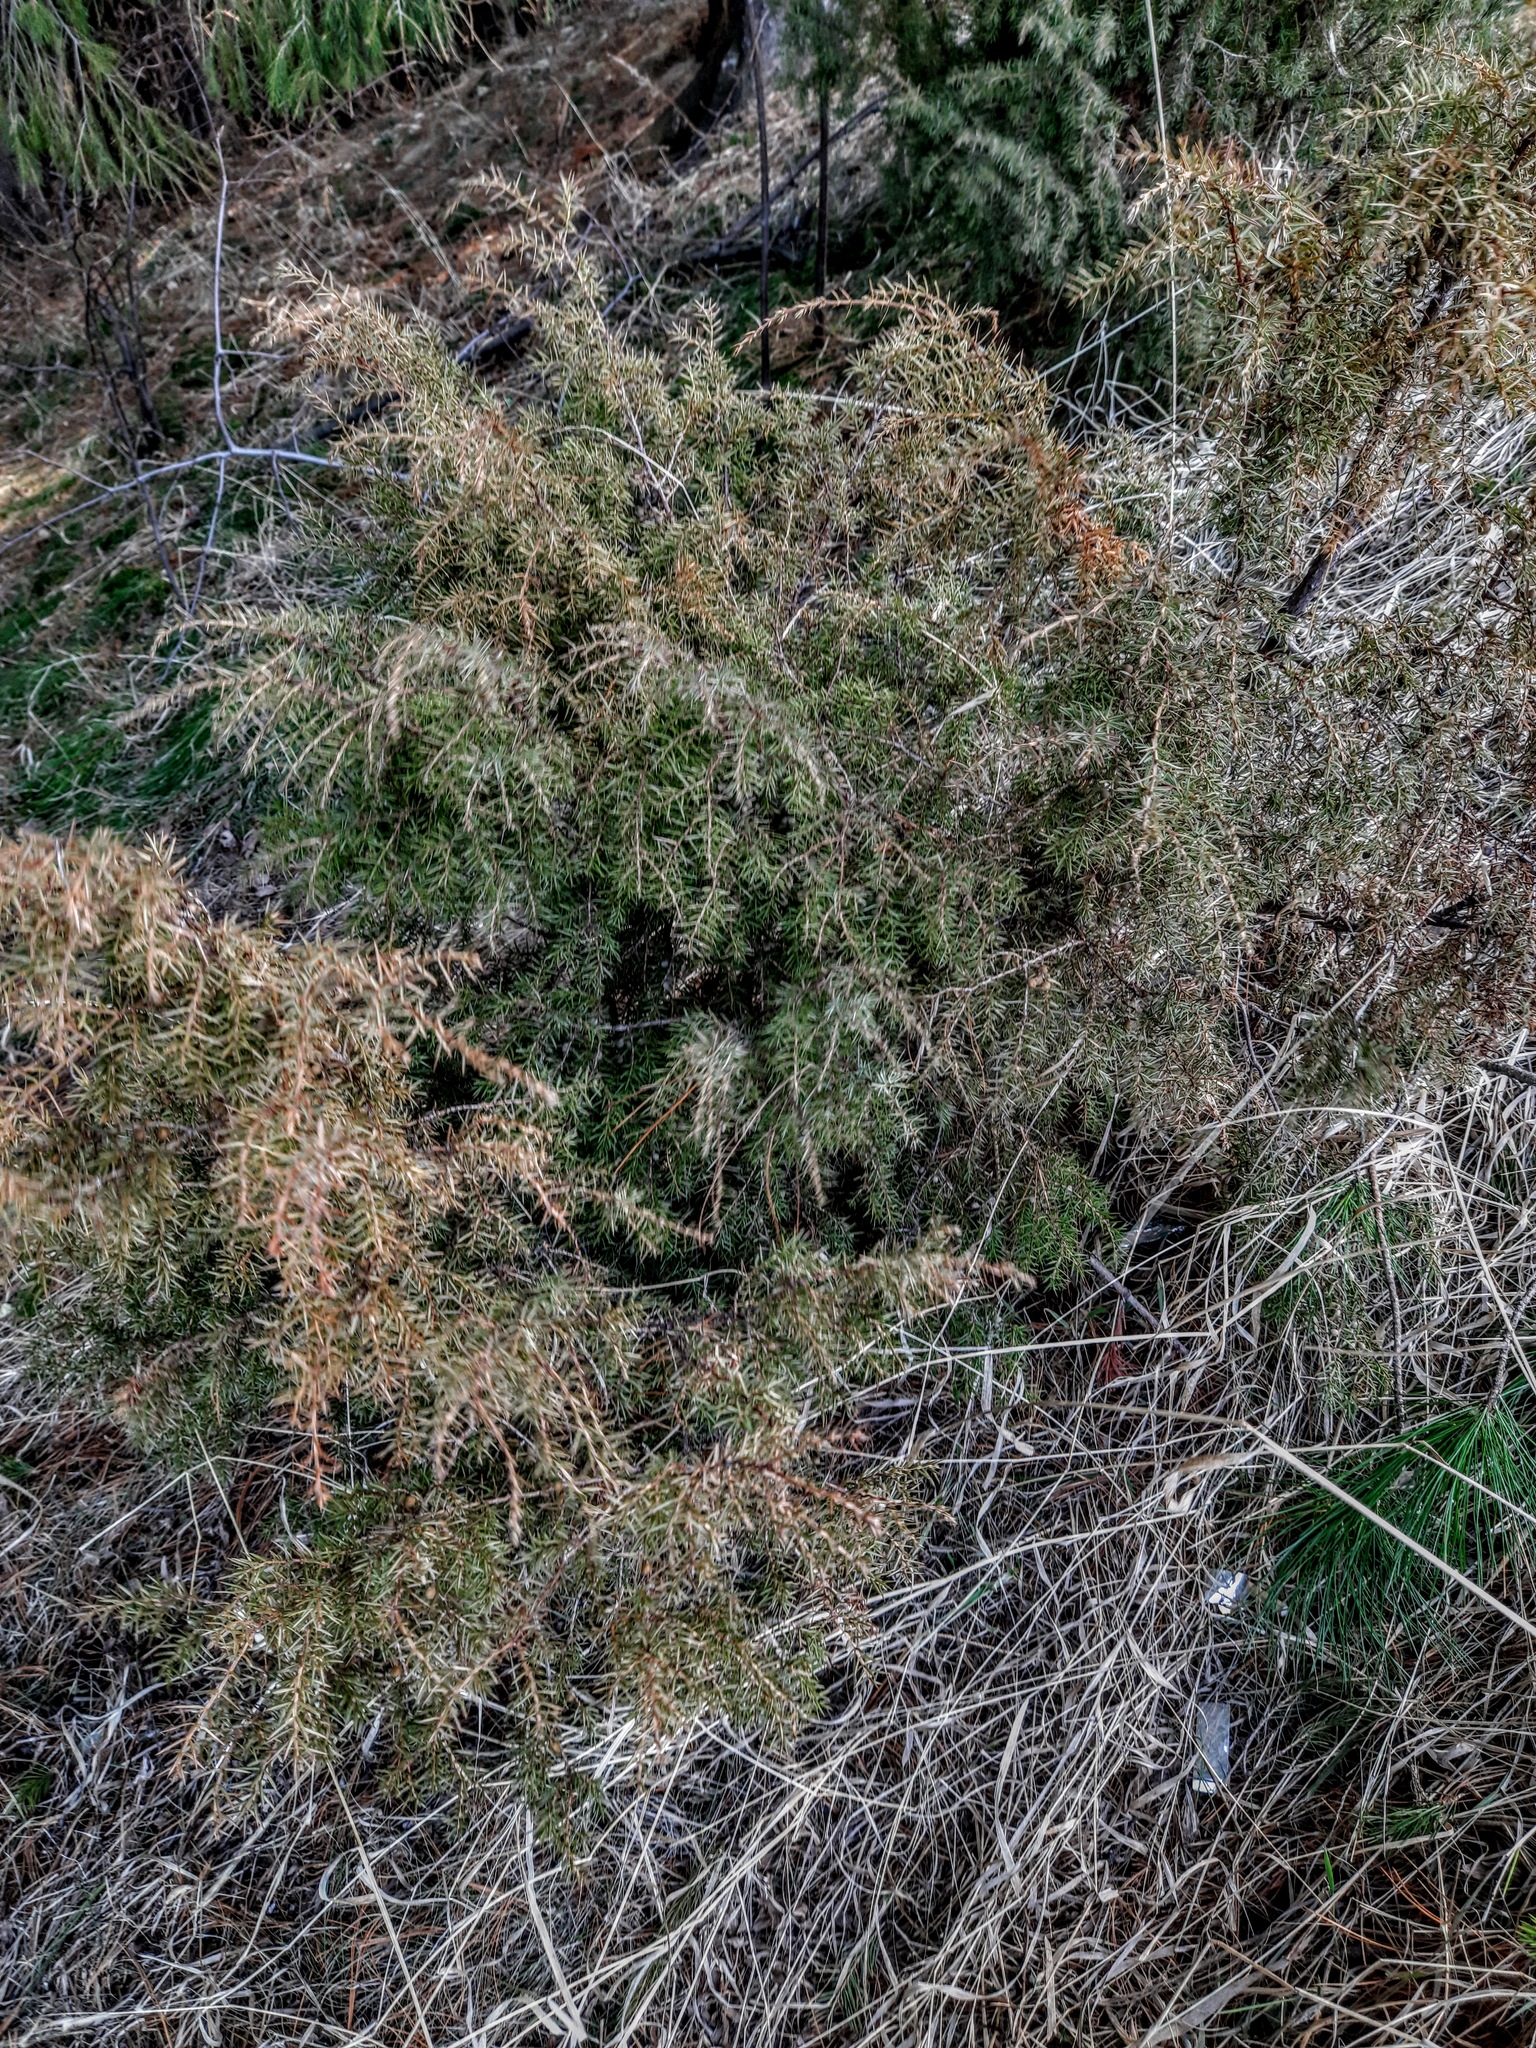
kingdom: Plantae
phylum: Tracheophyta
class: Pinopsida
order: Pinales
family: Cupressaceae
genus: Juniperus
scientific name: Juniperus communis
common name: Common juniper
